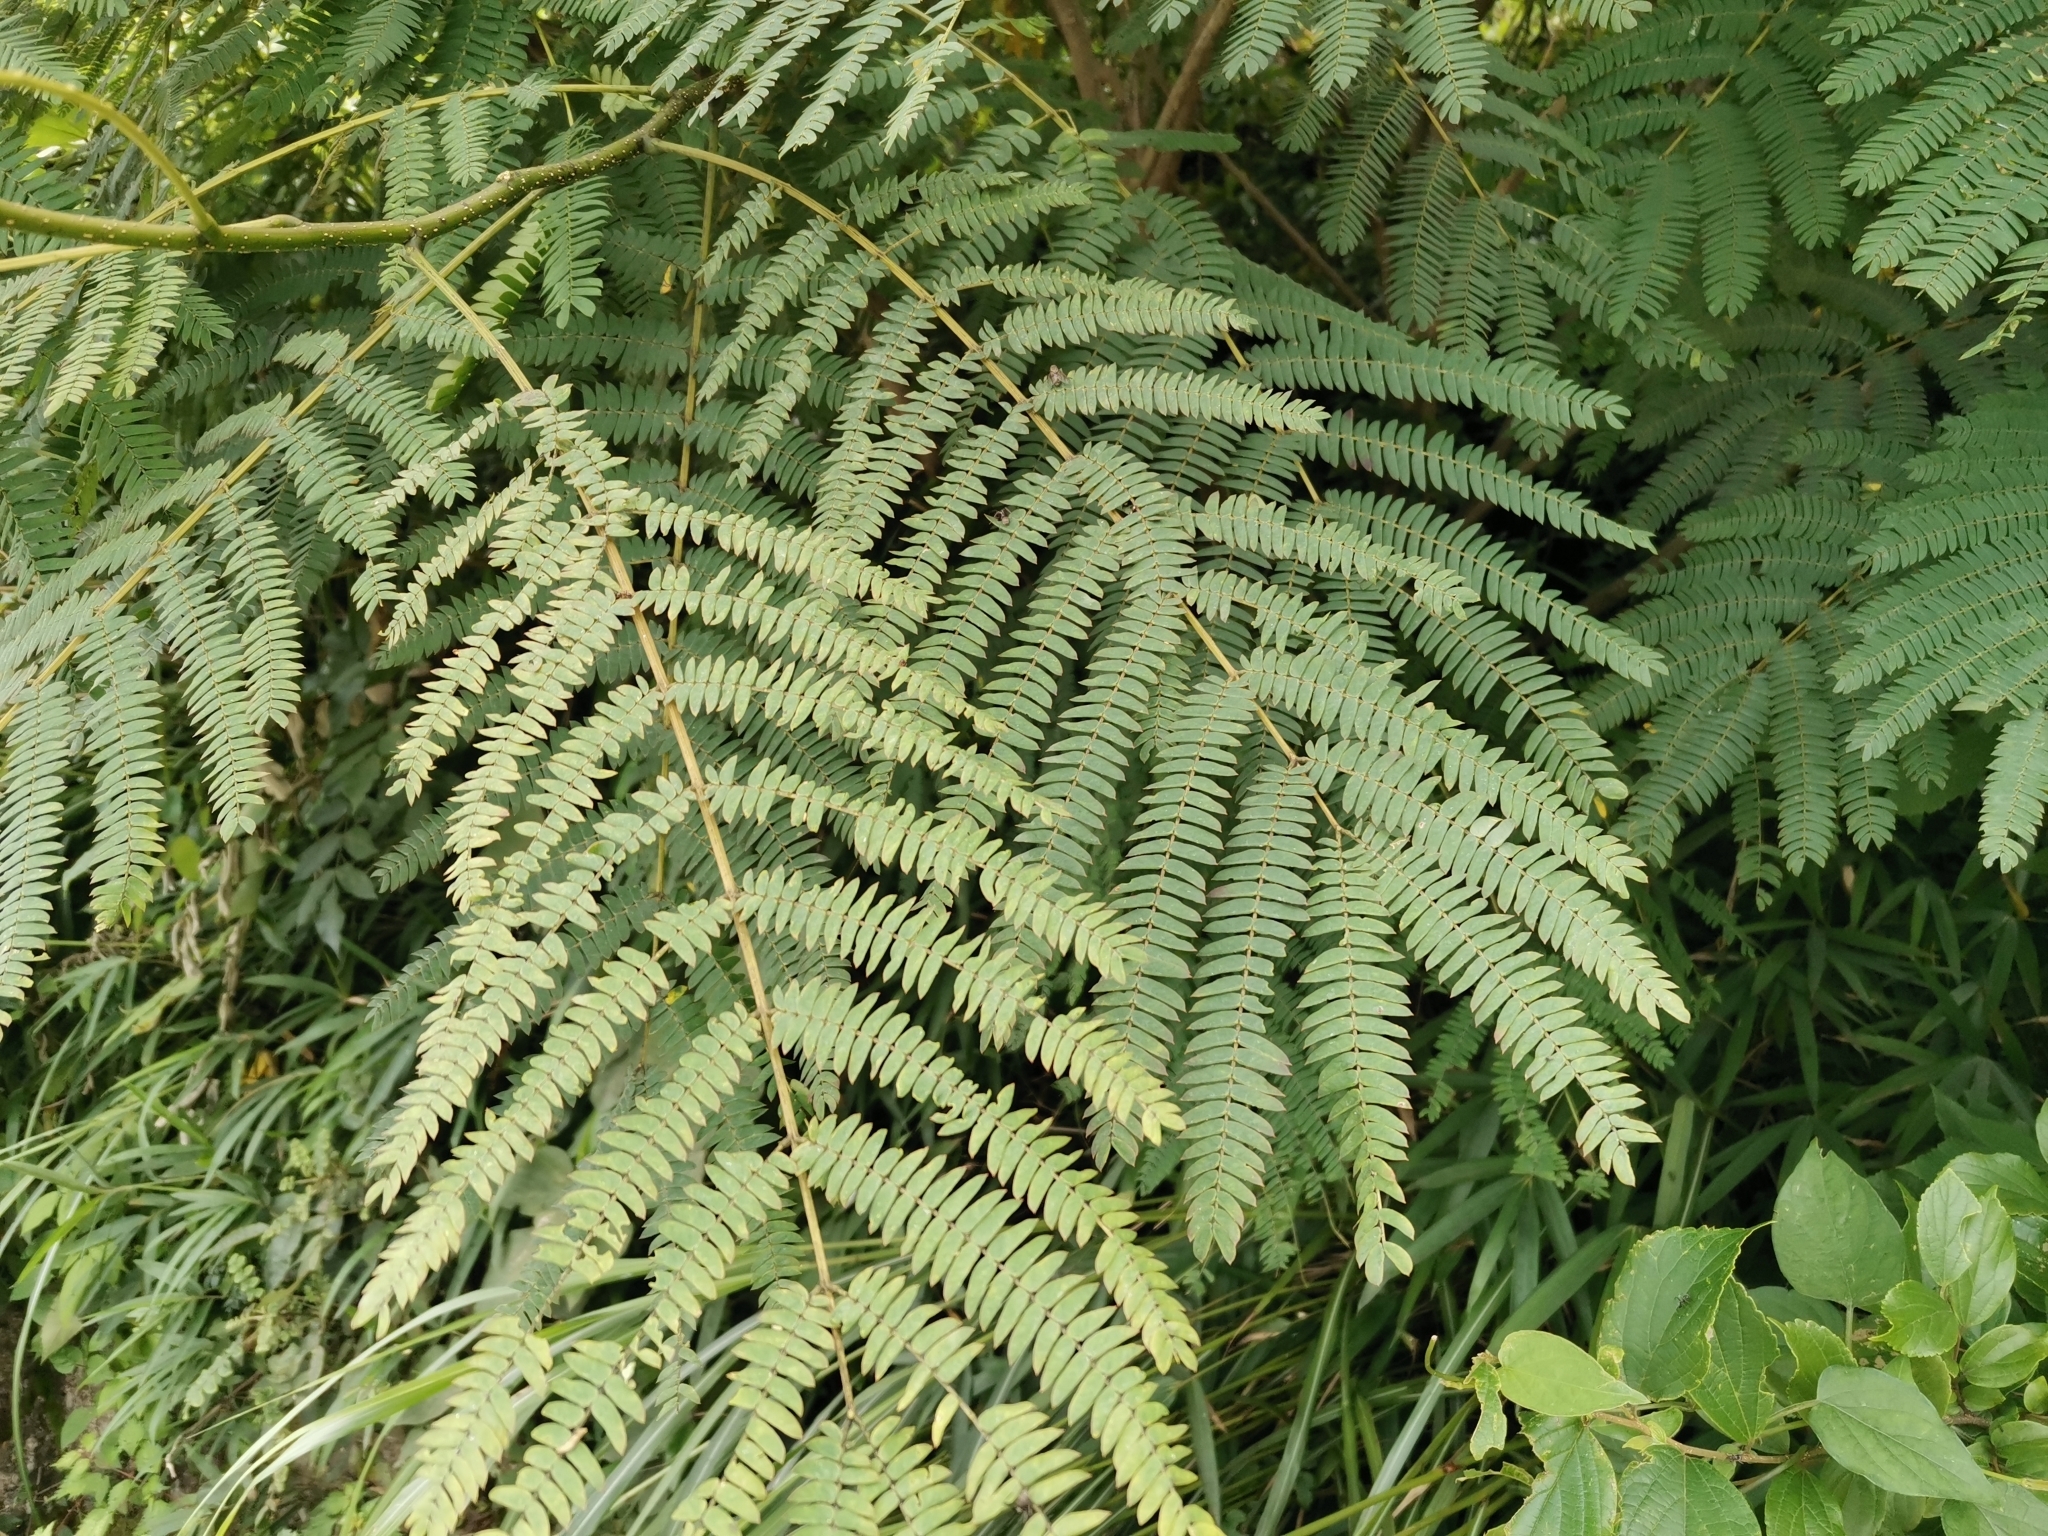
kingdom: Plantae
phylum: Tracheophyta
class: Magnoliopsida
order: Fabales
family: Fabaceae
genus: Albizia
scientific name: Albizia julibrissin
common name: Silktree
